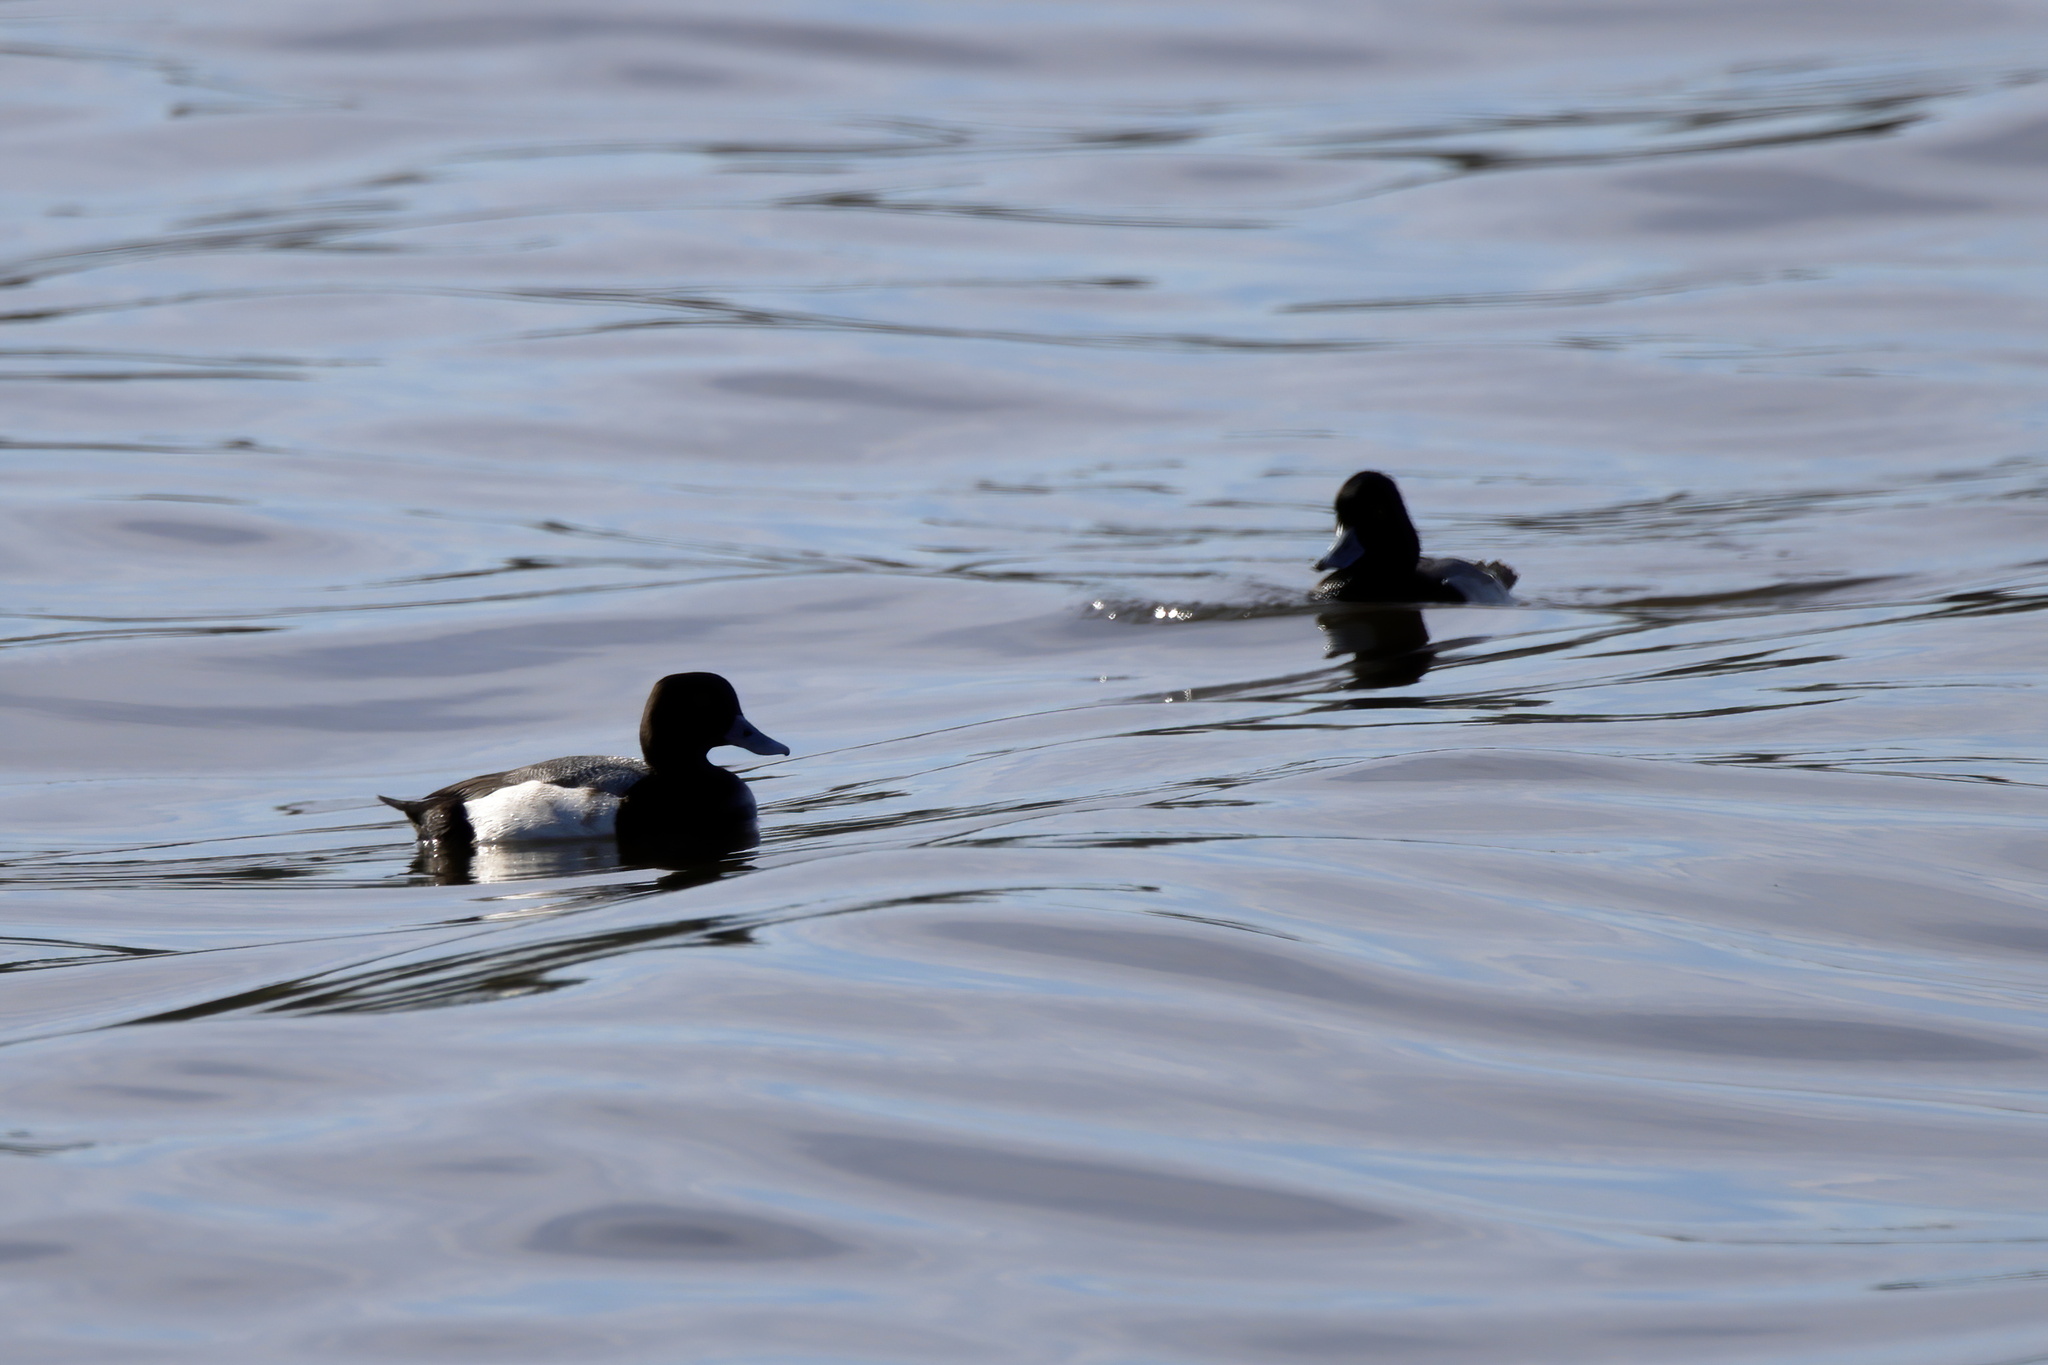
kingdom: Animalia
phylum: Chordata
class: Aves
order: Anseriformes
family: Anatidae
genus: Aythya
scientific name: Aythya affinis
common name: Lesser scaup
